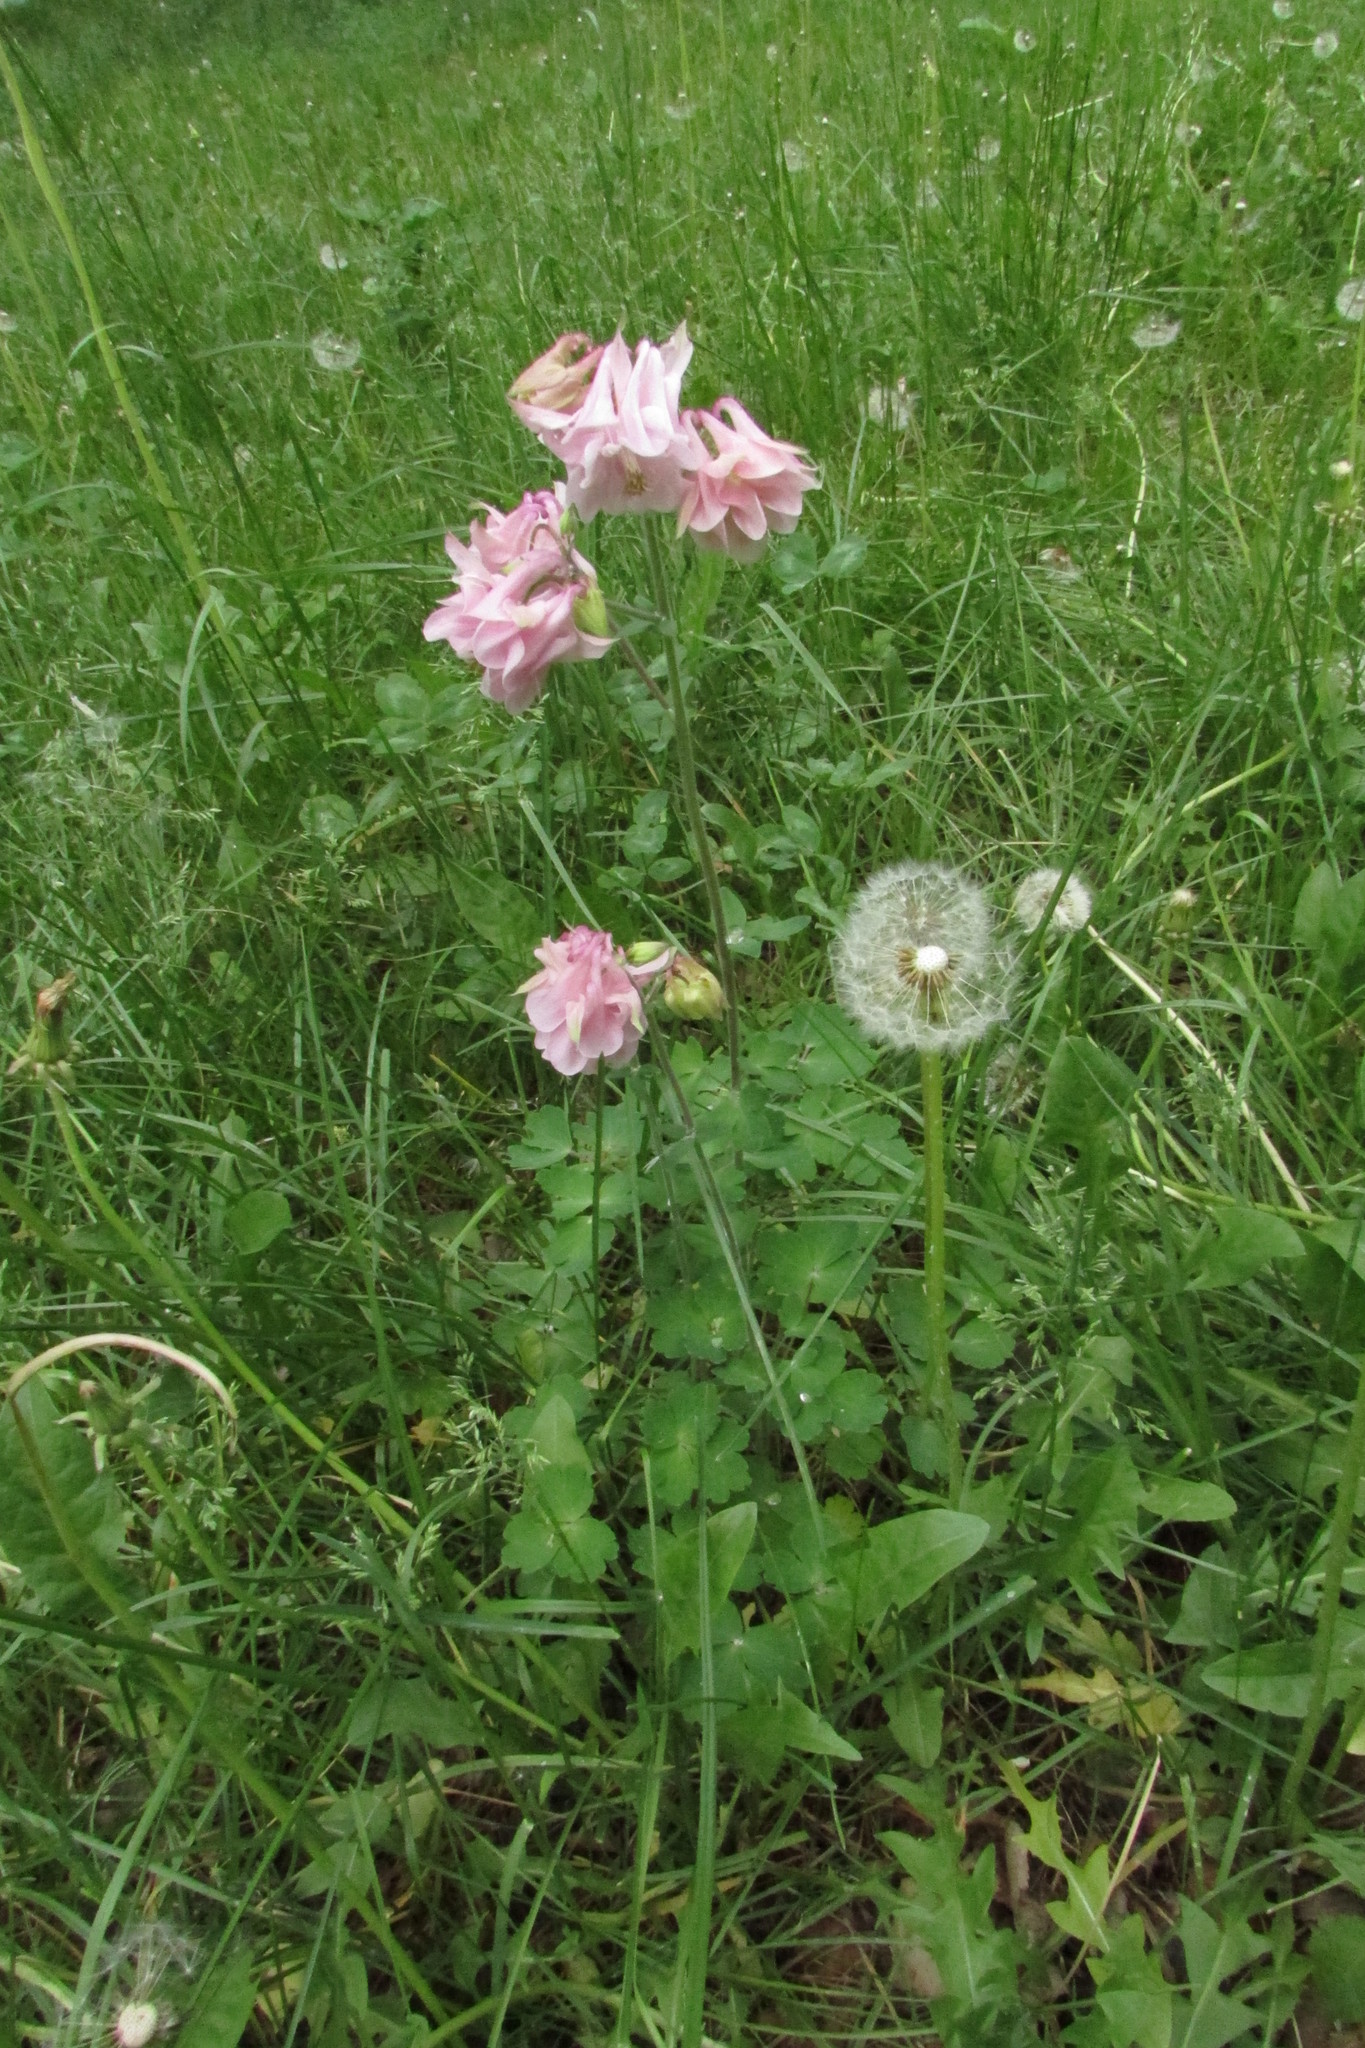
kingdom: Plantae
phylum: Tracheophyta
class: Magnoliopsida
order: Ranunculales
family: Ranunculaceae
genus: Aquilegia
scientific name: Aquilegia vulgaris
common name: Columbine
